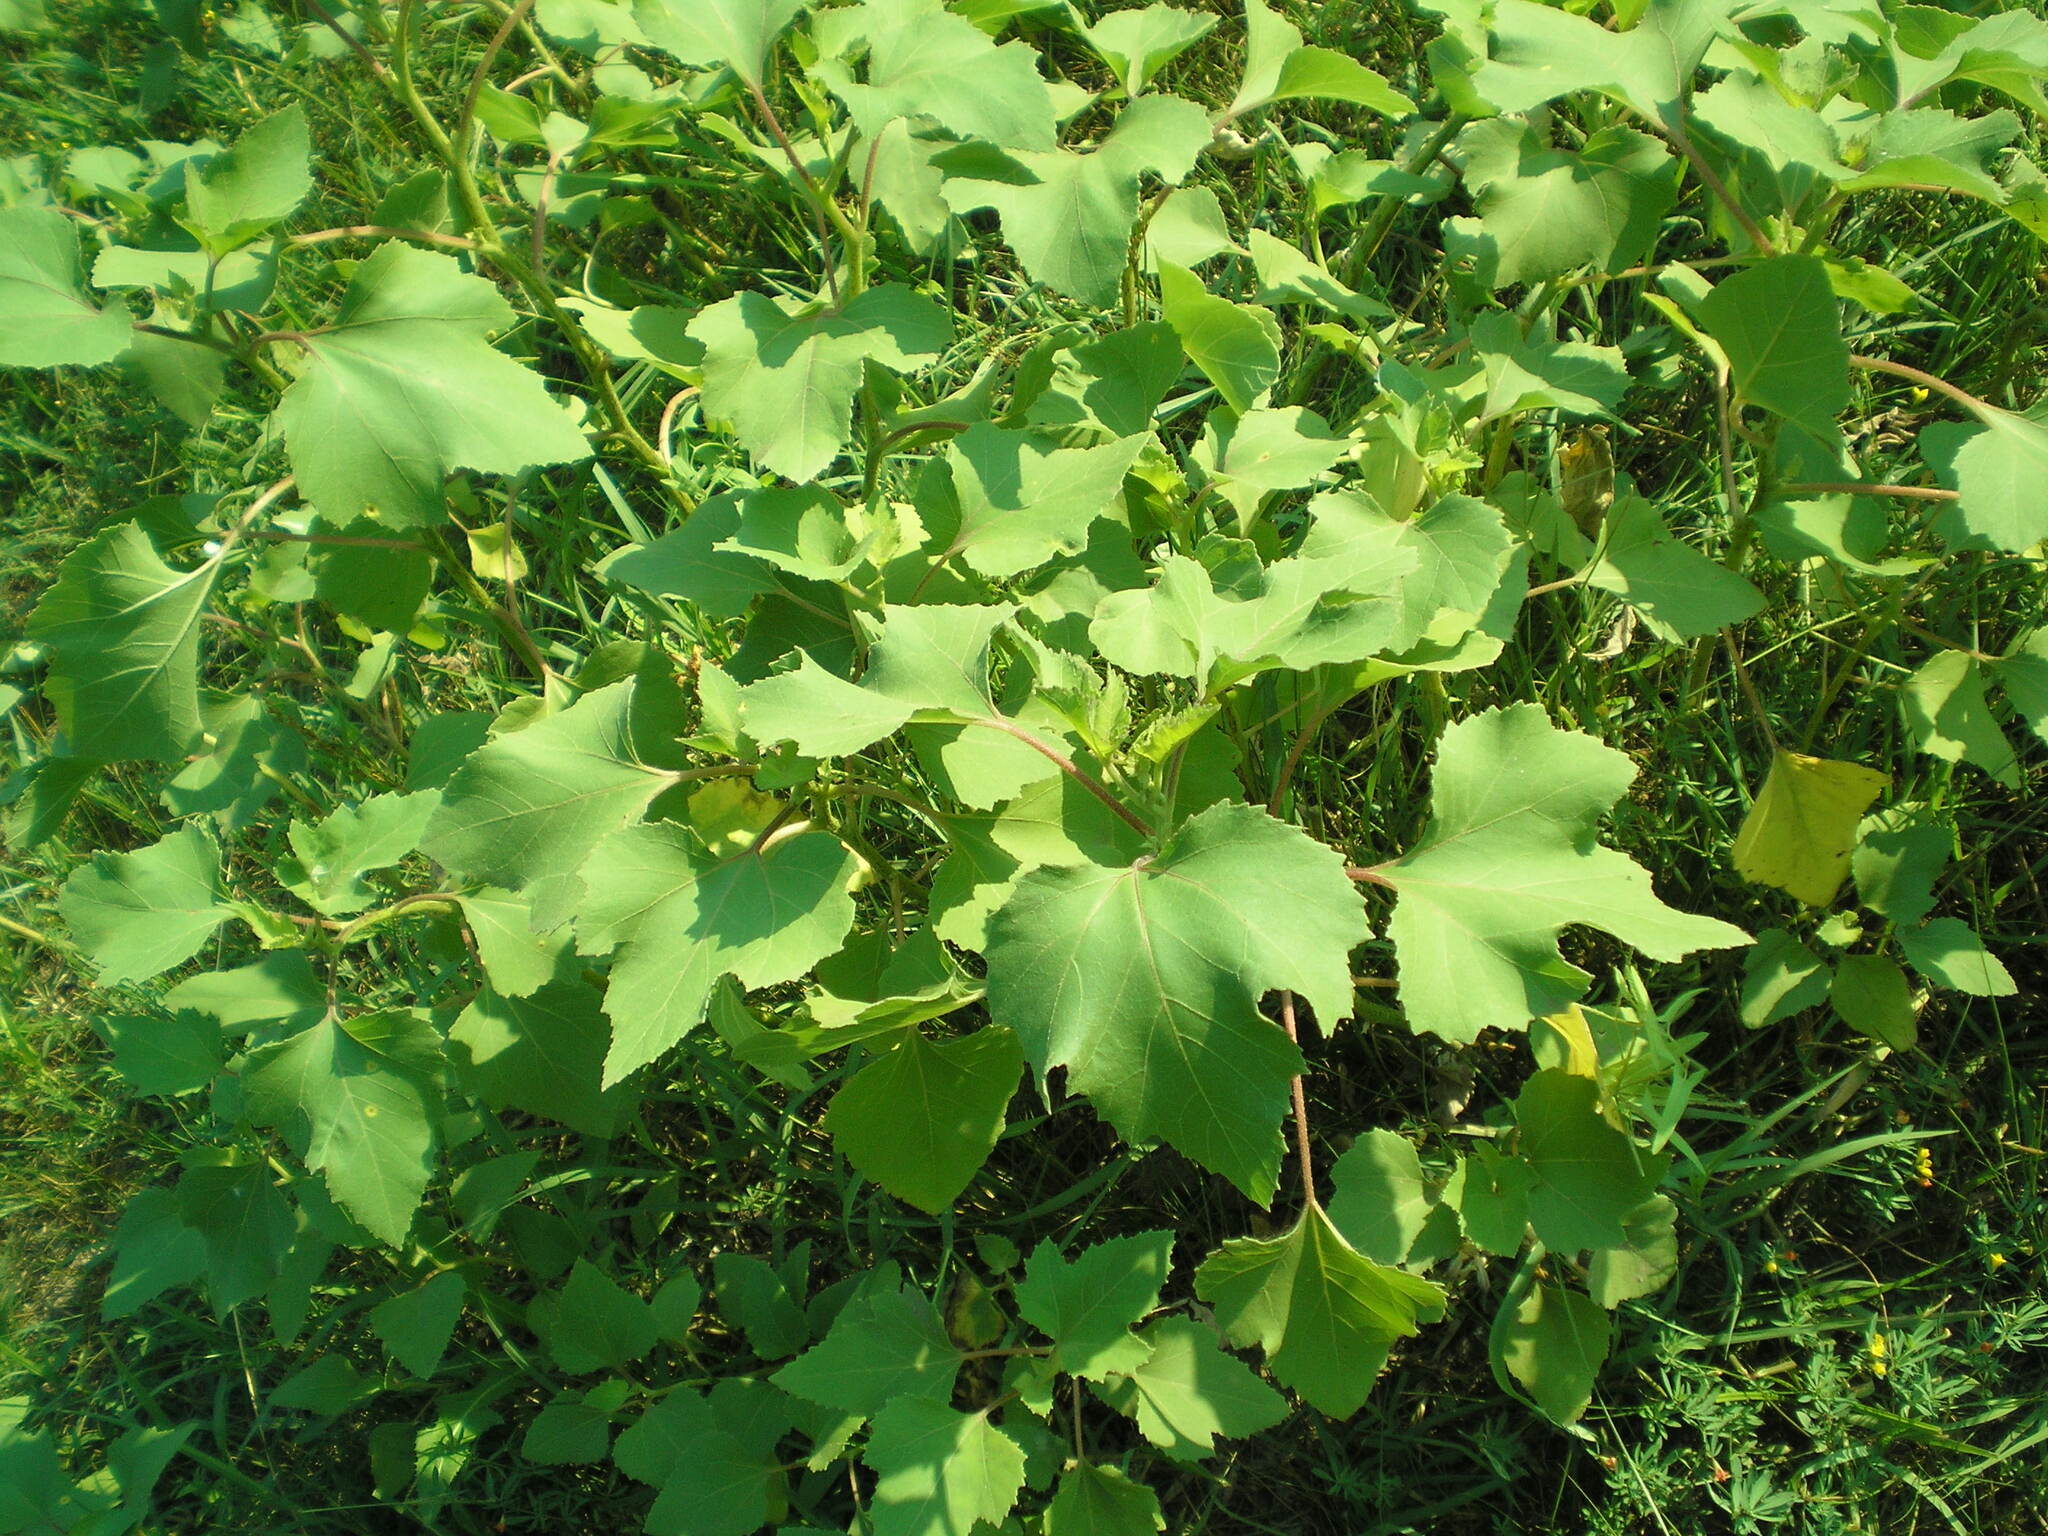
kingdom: Plantae
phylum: Tracheophyta
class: Magnoliopsida
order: Asterales
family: Asteraceae
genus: Xanthium
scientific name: Xanthium orientale
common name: Californian burr
